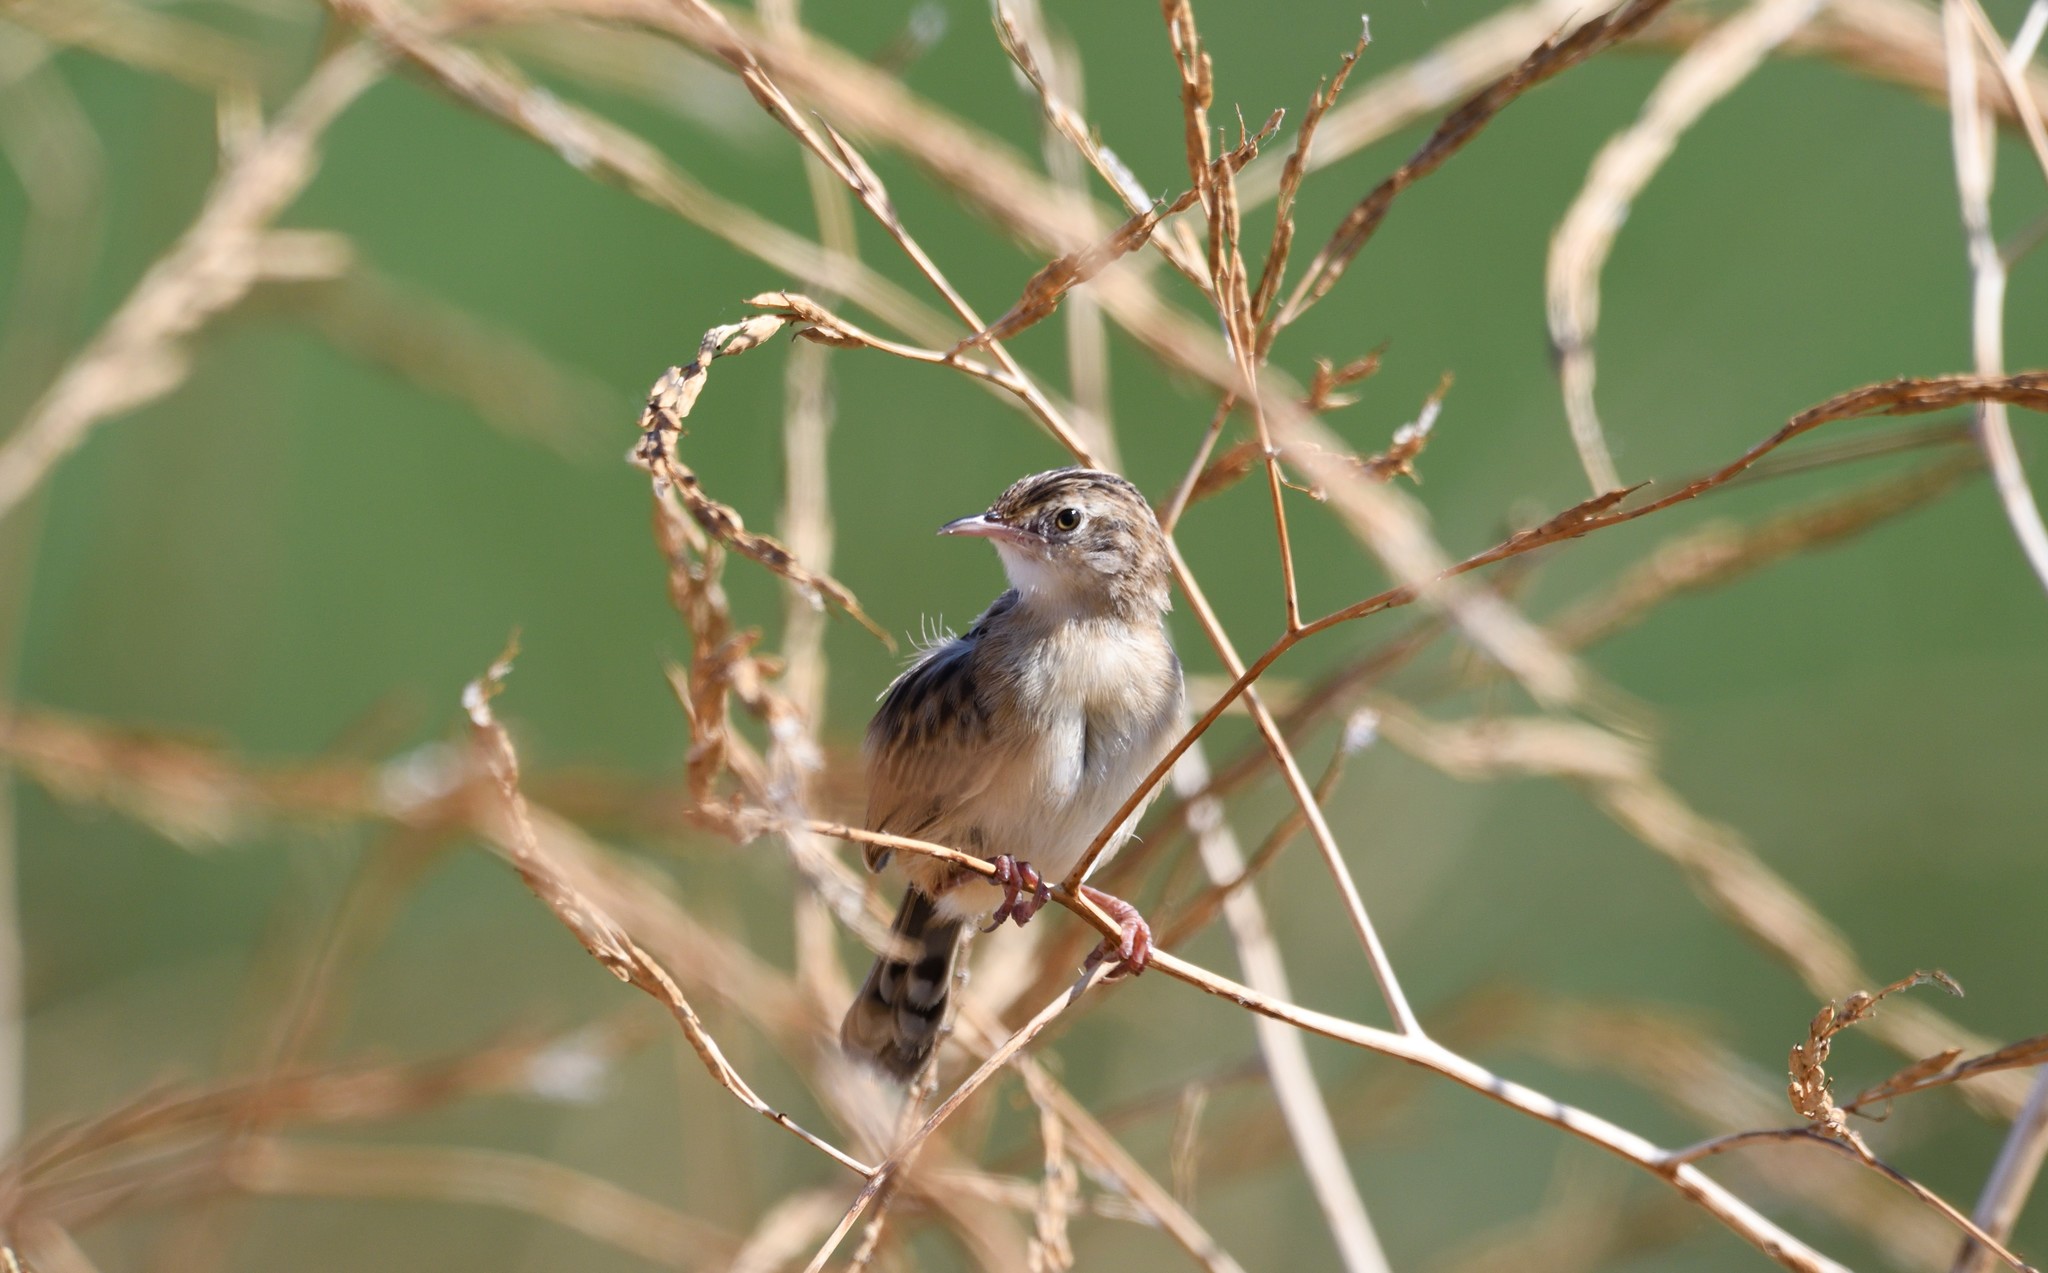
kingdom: Animalia
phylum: Chordata
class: Aves
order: Passeriformes
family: Cisticolidae
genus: Cisticola
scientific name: Cisticola juncidis
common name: Zitting cisticola
